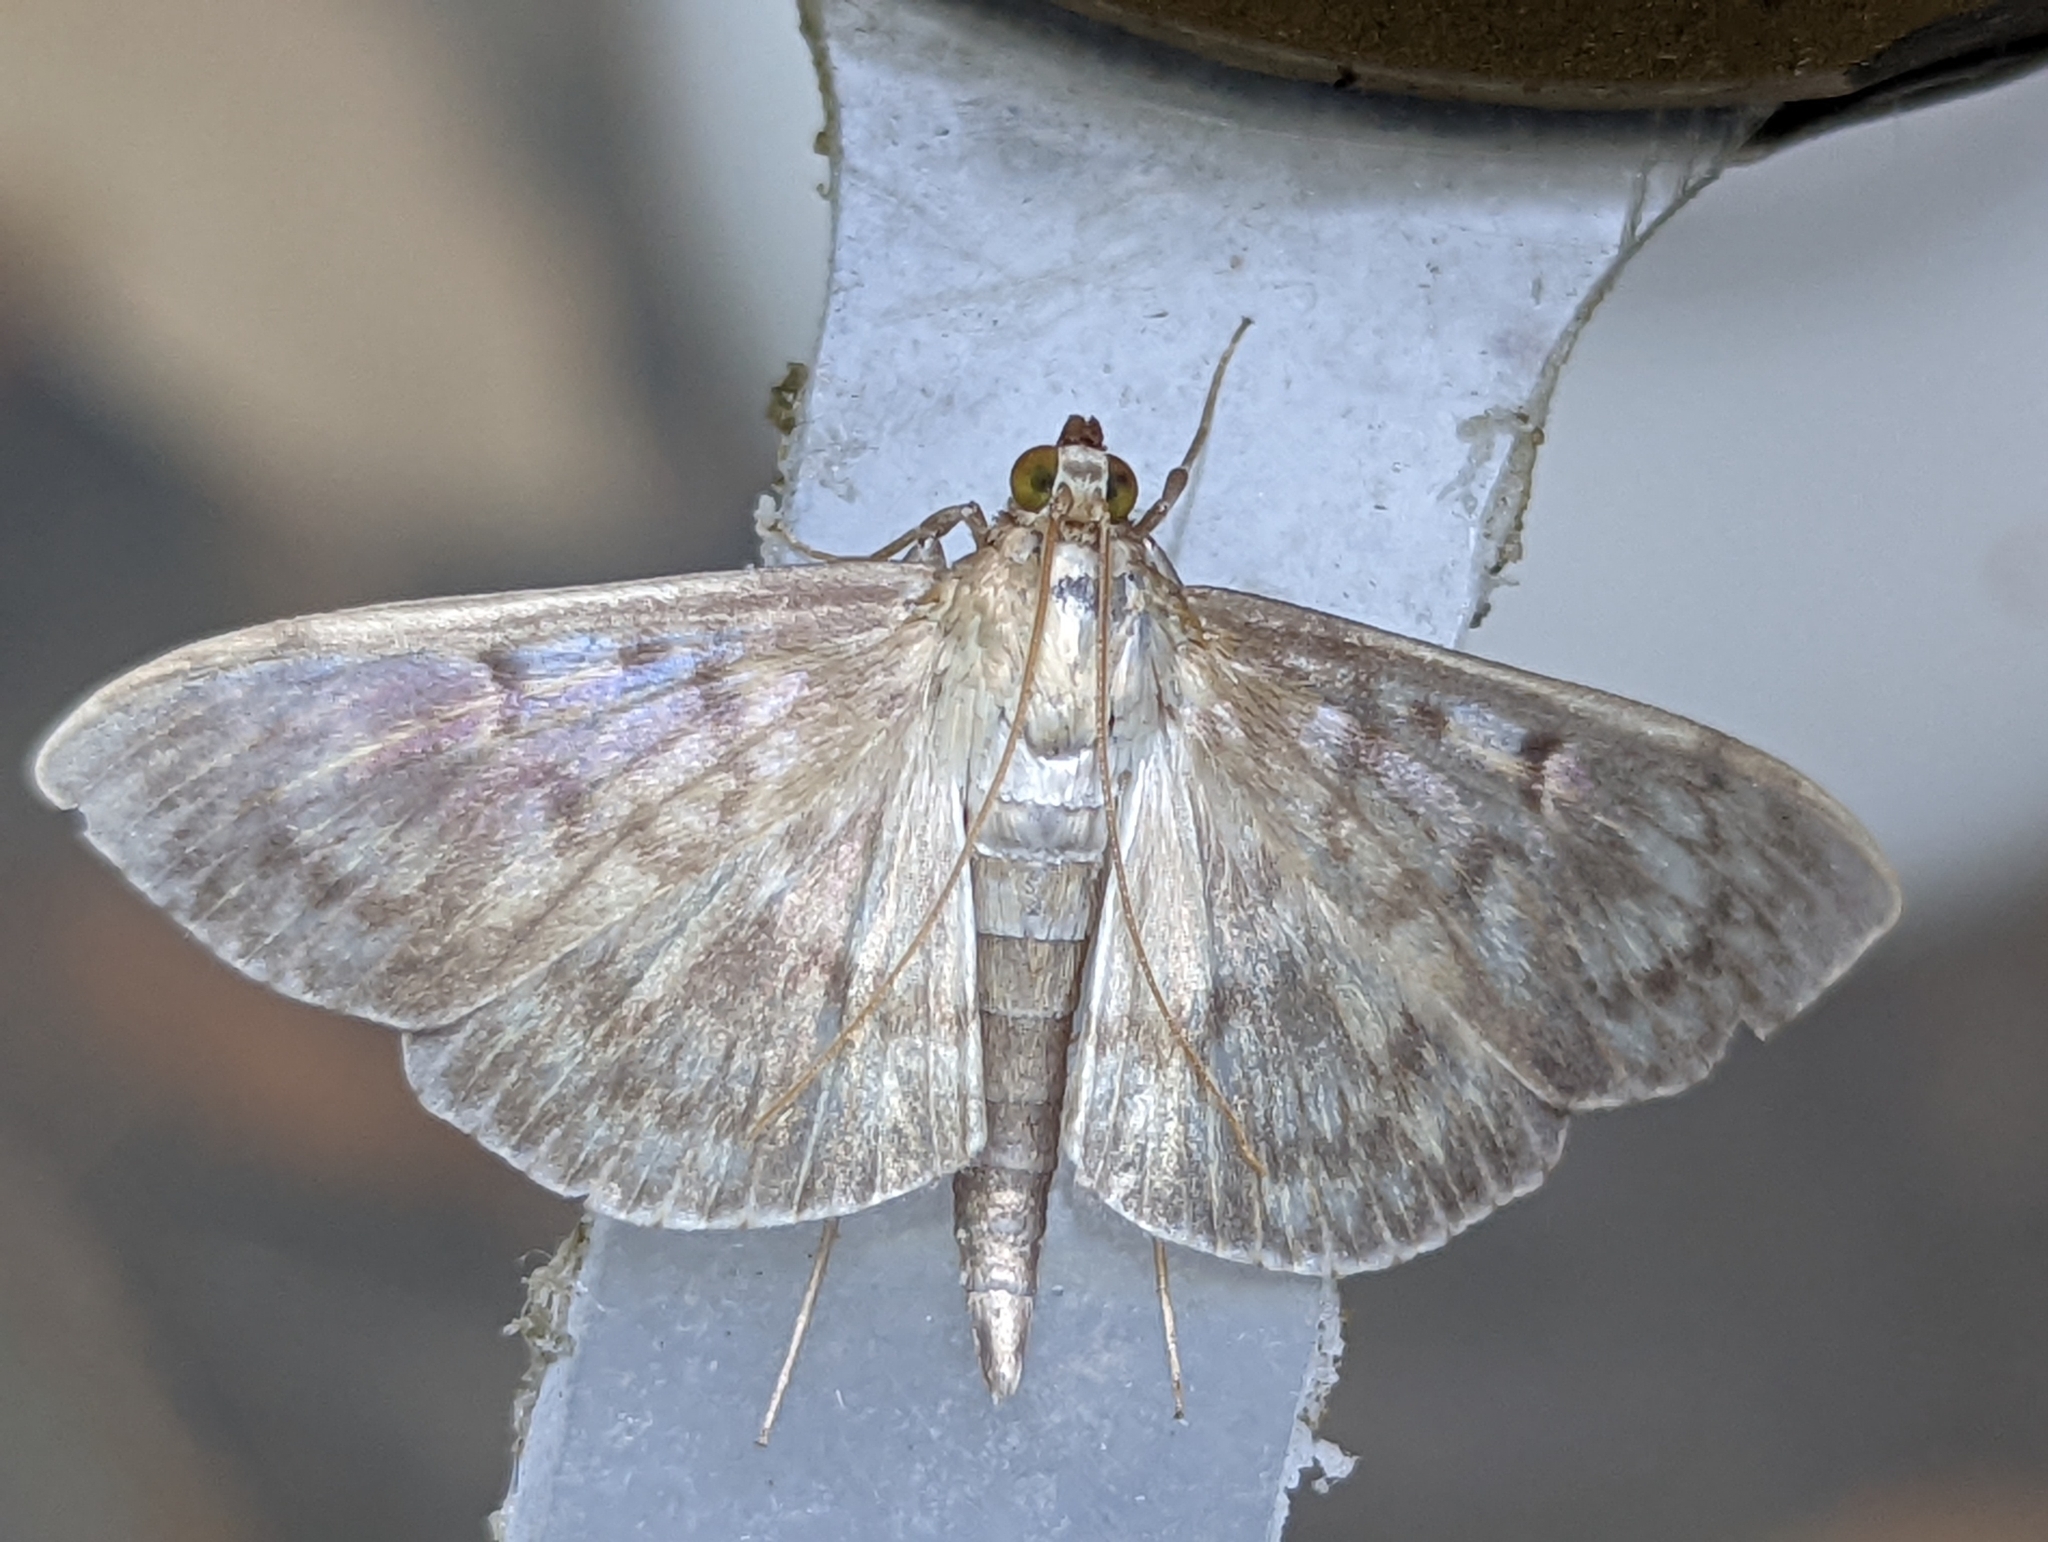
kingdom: Animalia
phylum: Arthropoda
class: Insecta
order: Lepidoptera
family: Crambidae
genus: Patania
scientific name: Patania ruralis
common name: Mother of pearl
